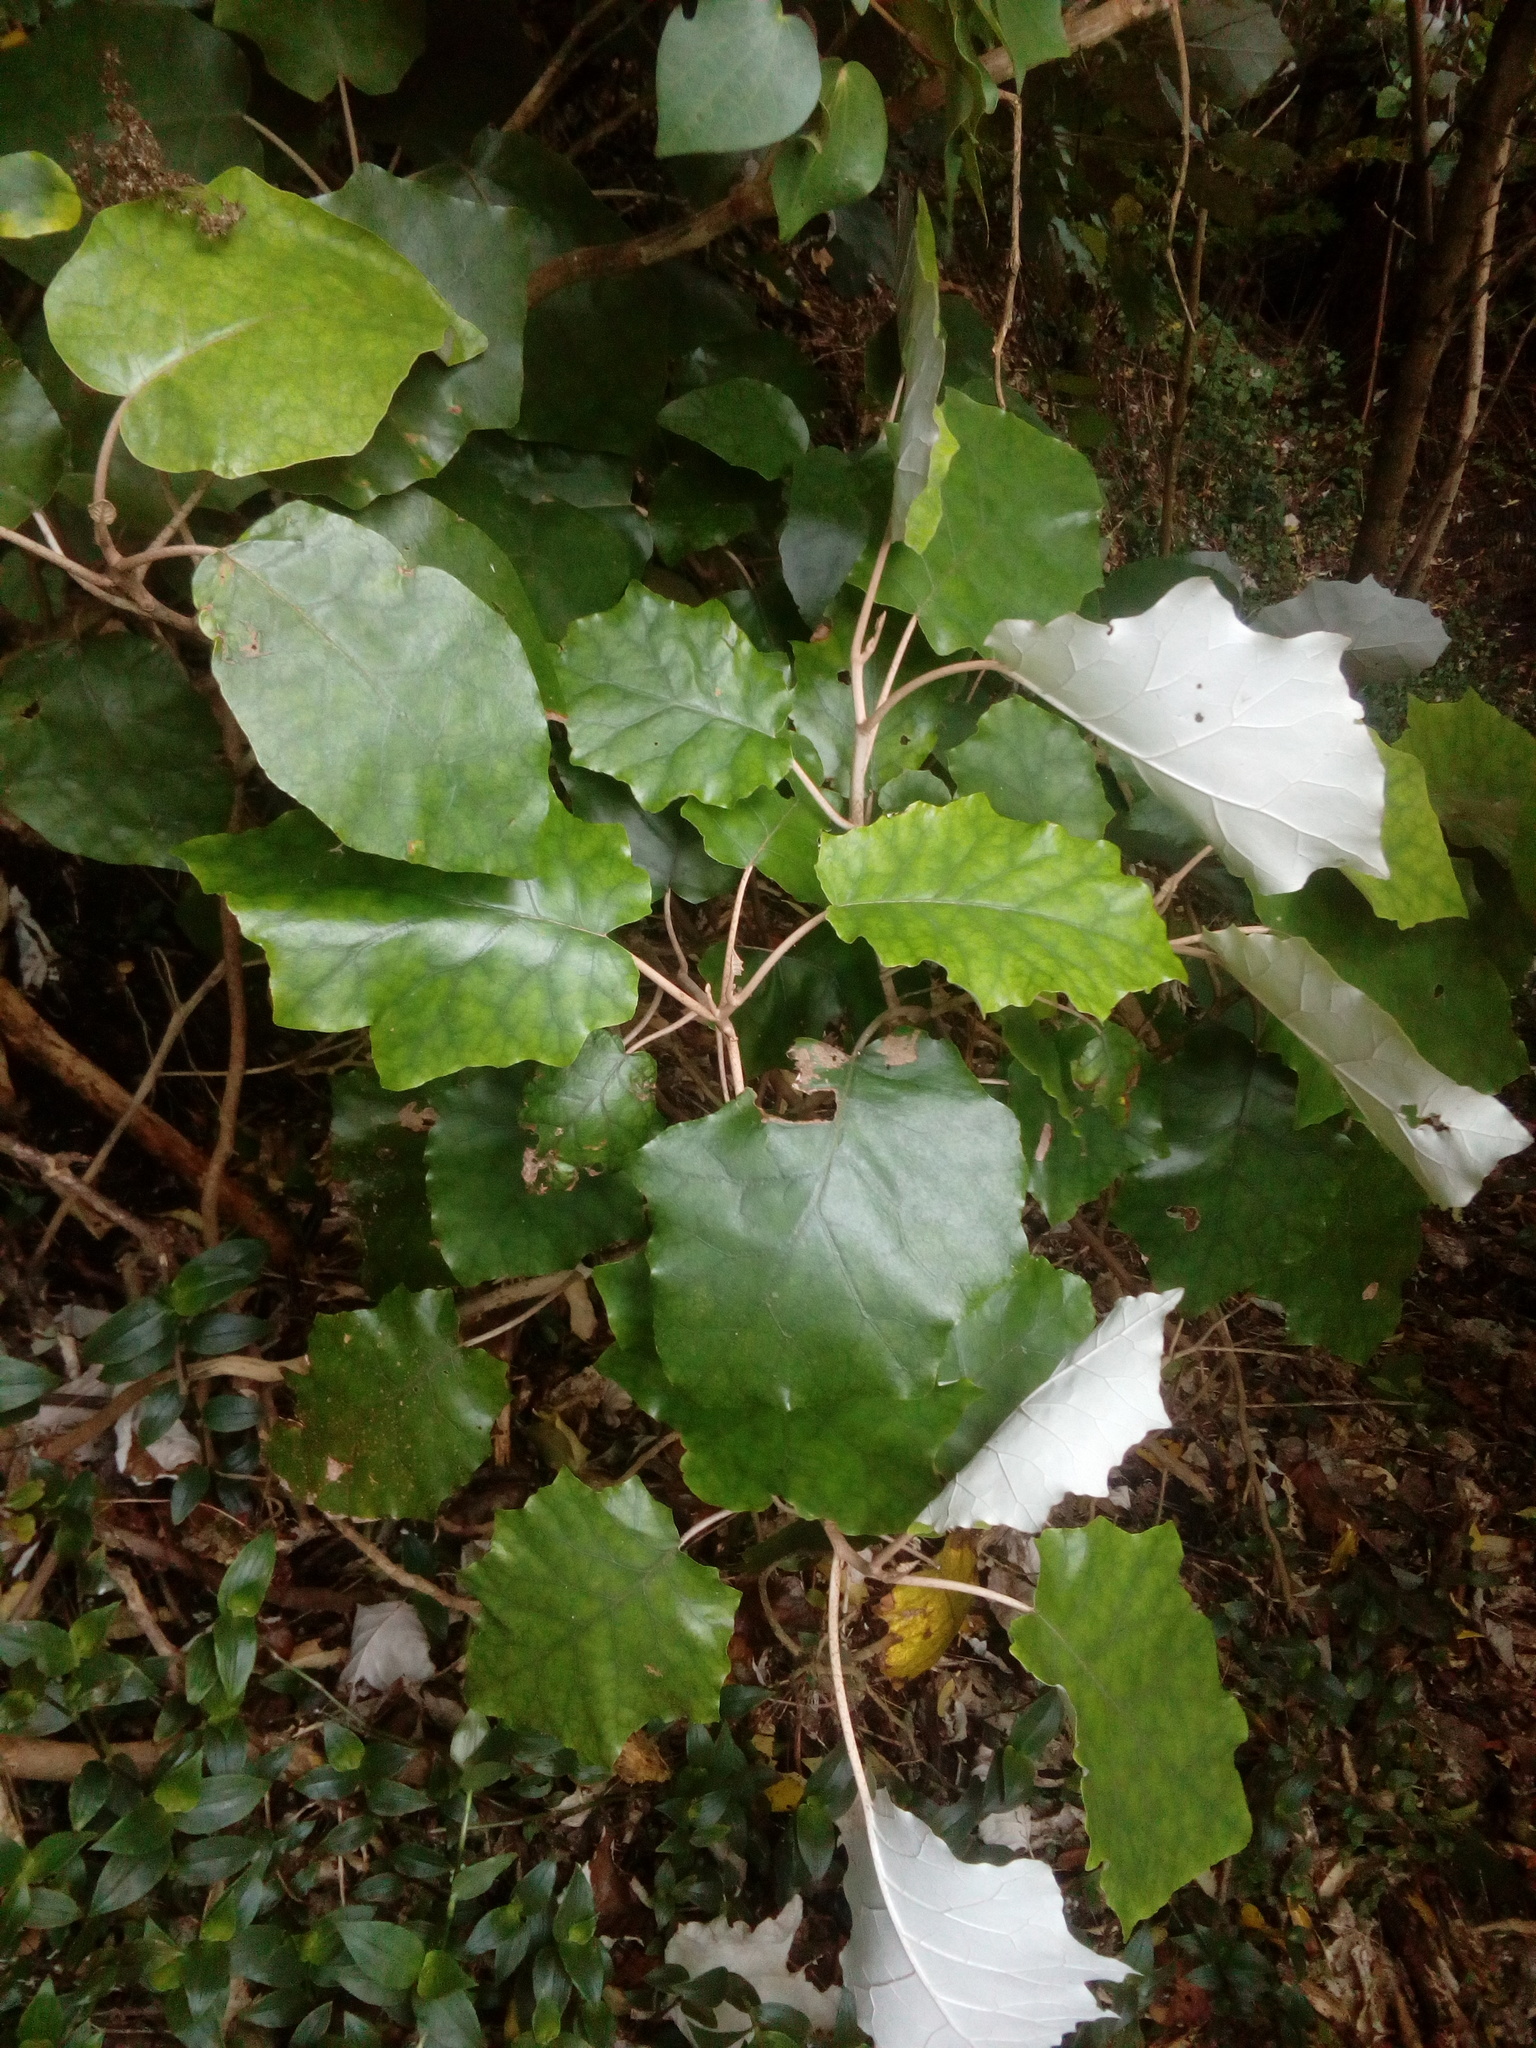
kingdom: Plantae
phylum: Tracheophyta
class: Magnoliopsida
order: Asterales
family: Asteraceae
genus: Brachyglottis
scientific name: Brachyglottis repanda
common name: Hedge ragwort
